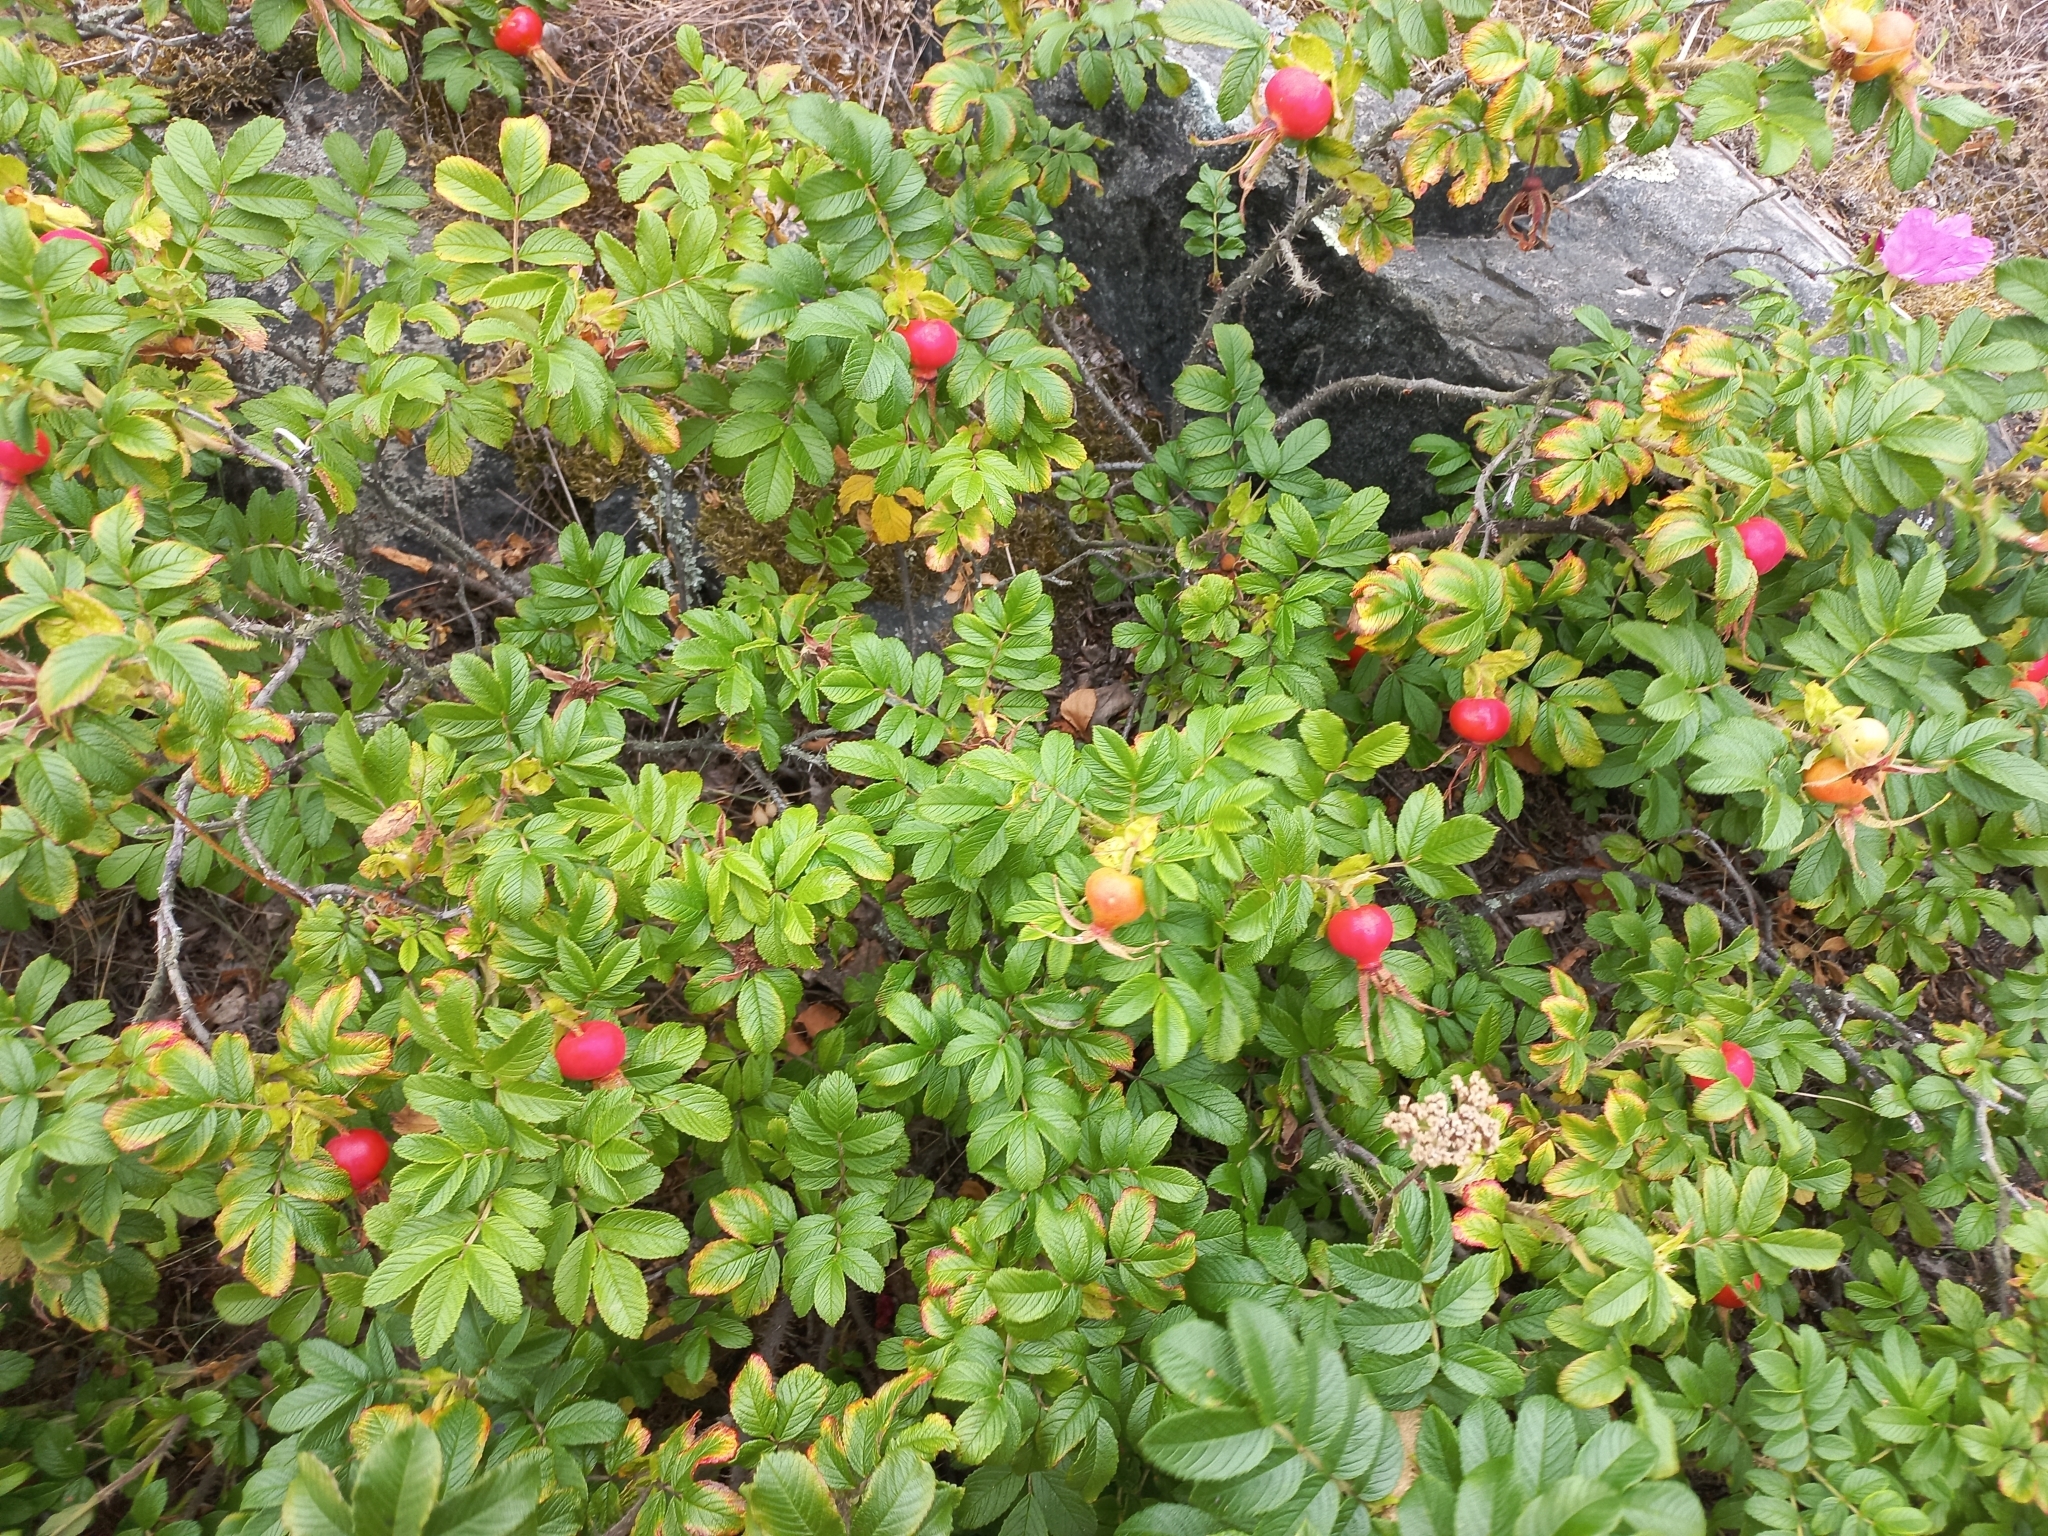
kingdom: Plantae
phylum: Tracheophyta
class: Magnoliopsida
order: Rosales
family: Rosaceae
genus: Rosa
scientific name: Rosa rugosa
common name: Japanese rose
